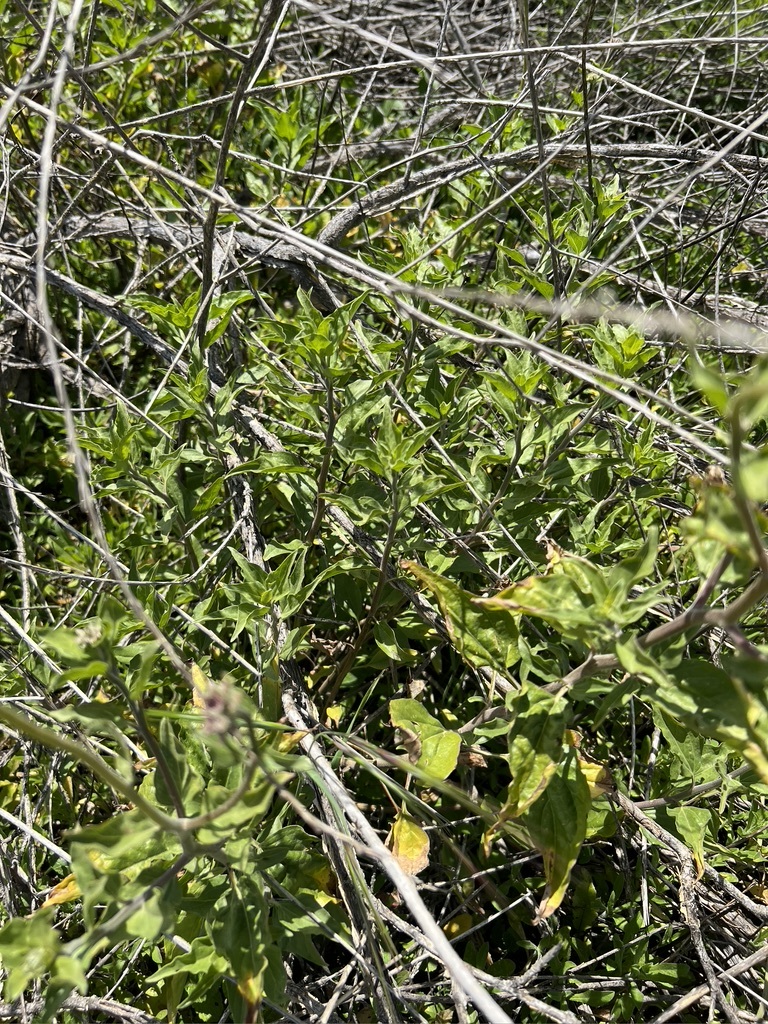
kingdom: Plantae
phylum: Tracheophyta
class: Magnoliopsida
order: Asterales
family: Asteraceae
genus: Encelia
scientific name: Encelia californica
